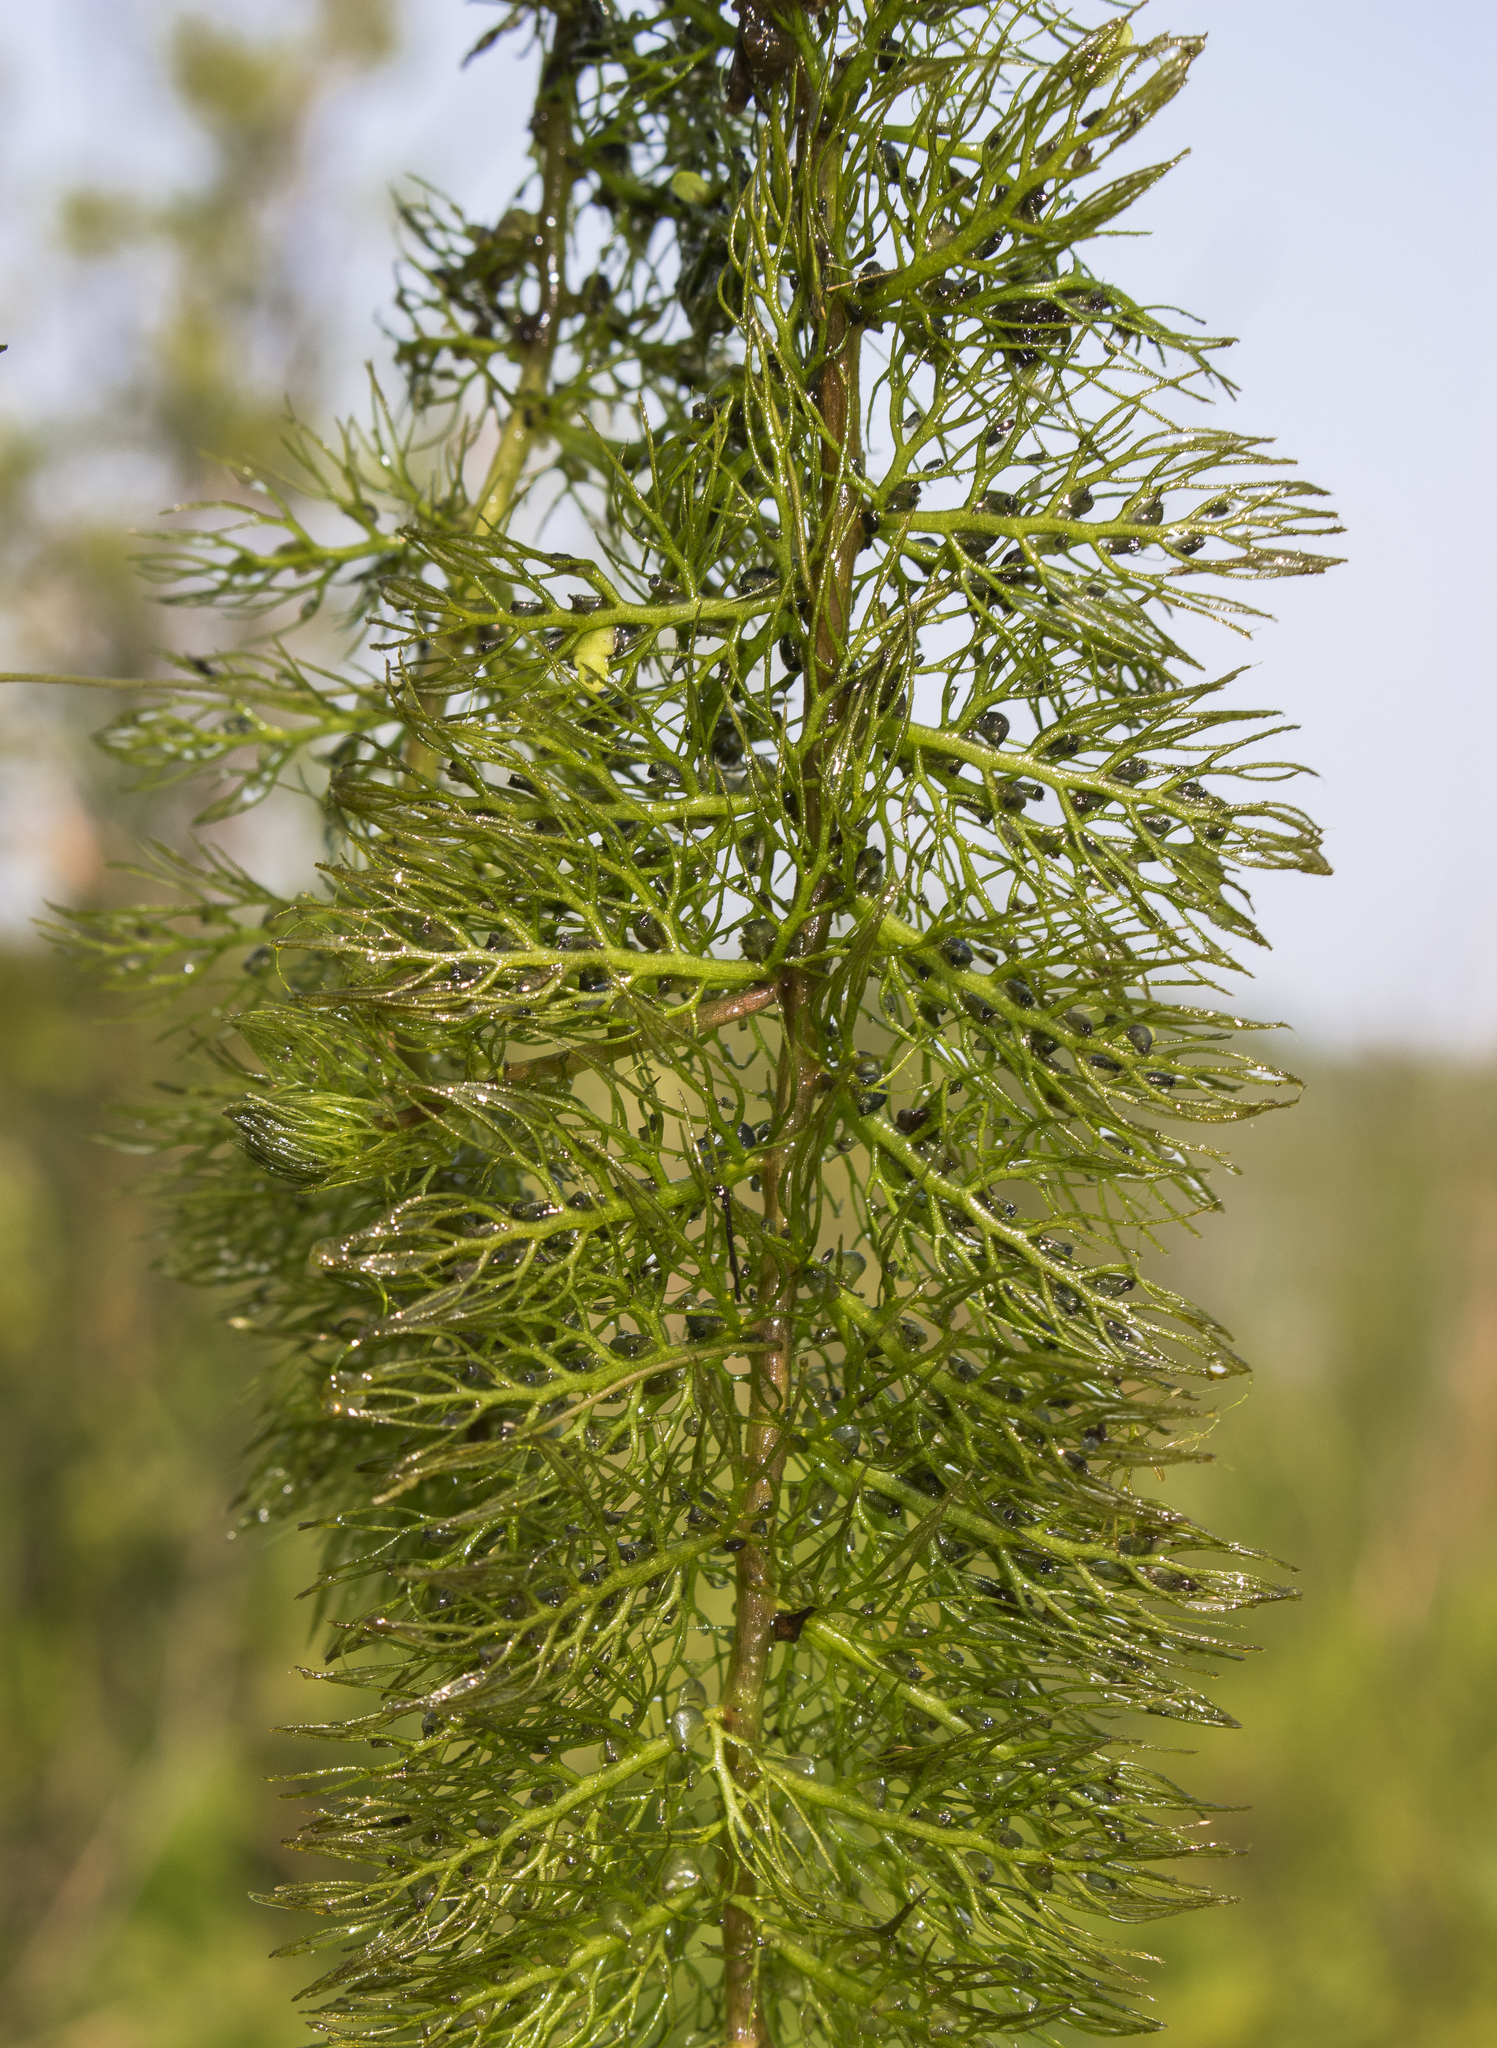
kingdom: Plantae
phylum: Tracheophyta
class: Magnoliopsida
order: Lamiales
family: Lentibulariaceae
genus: Utricularia
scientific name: Utricularia macrorhiza
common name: Common bladderwort
